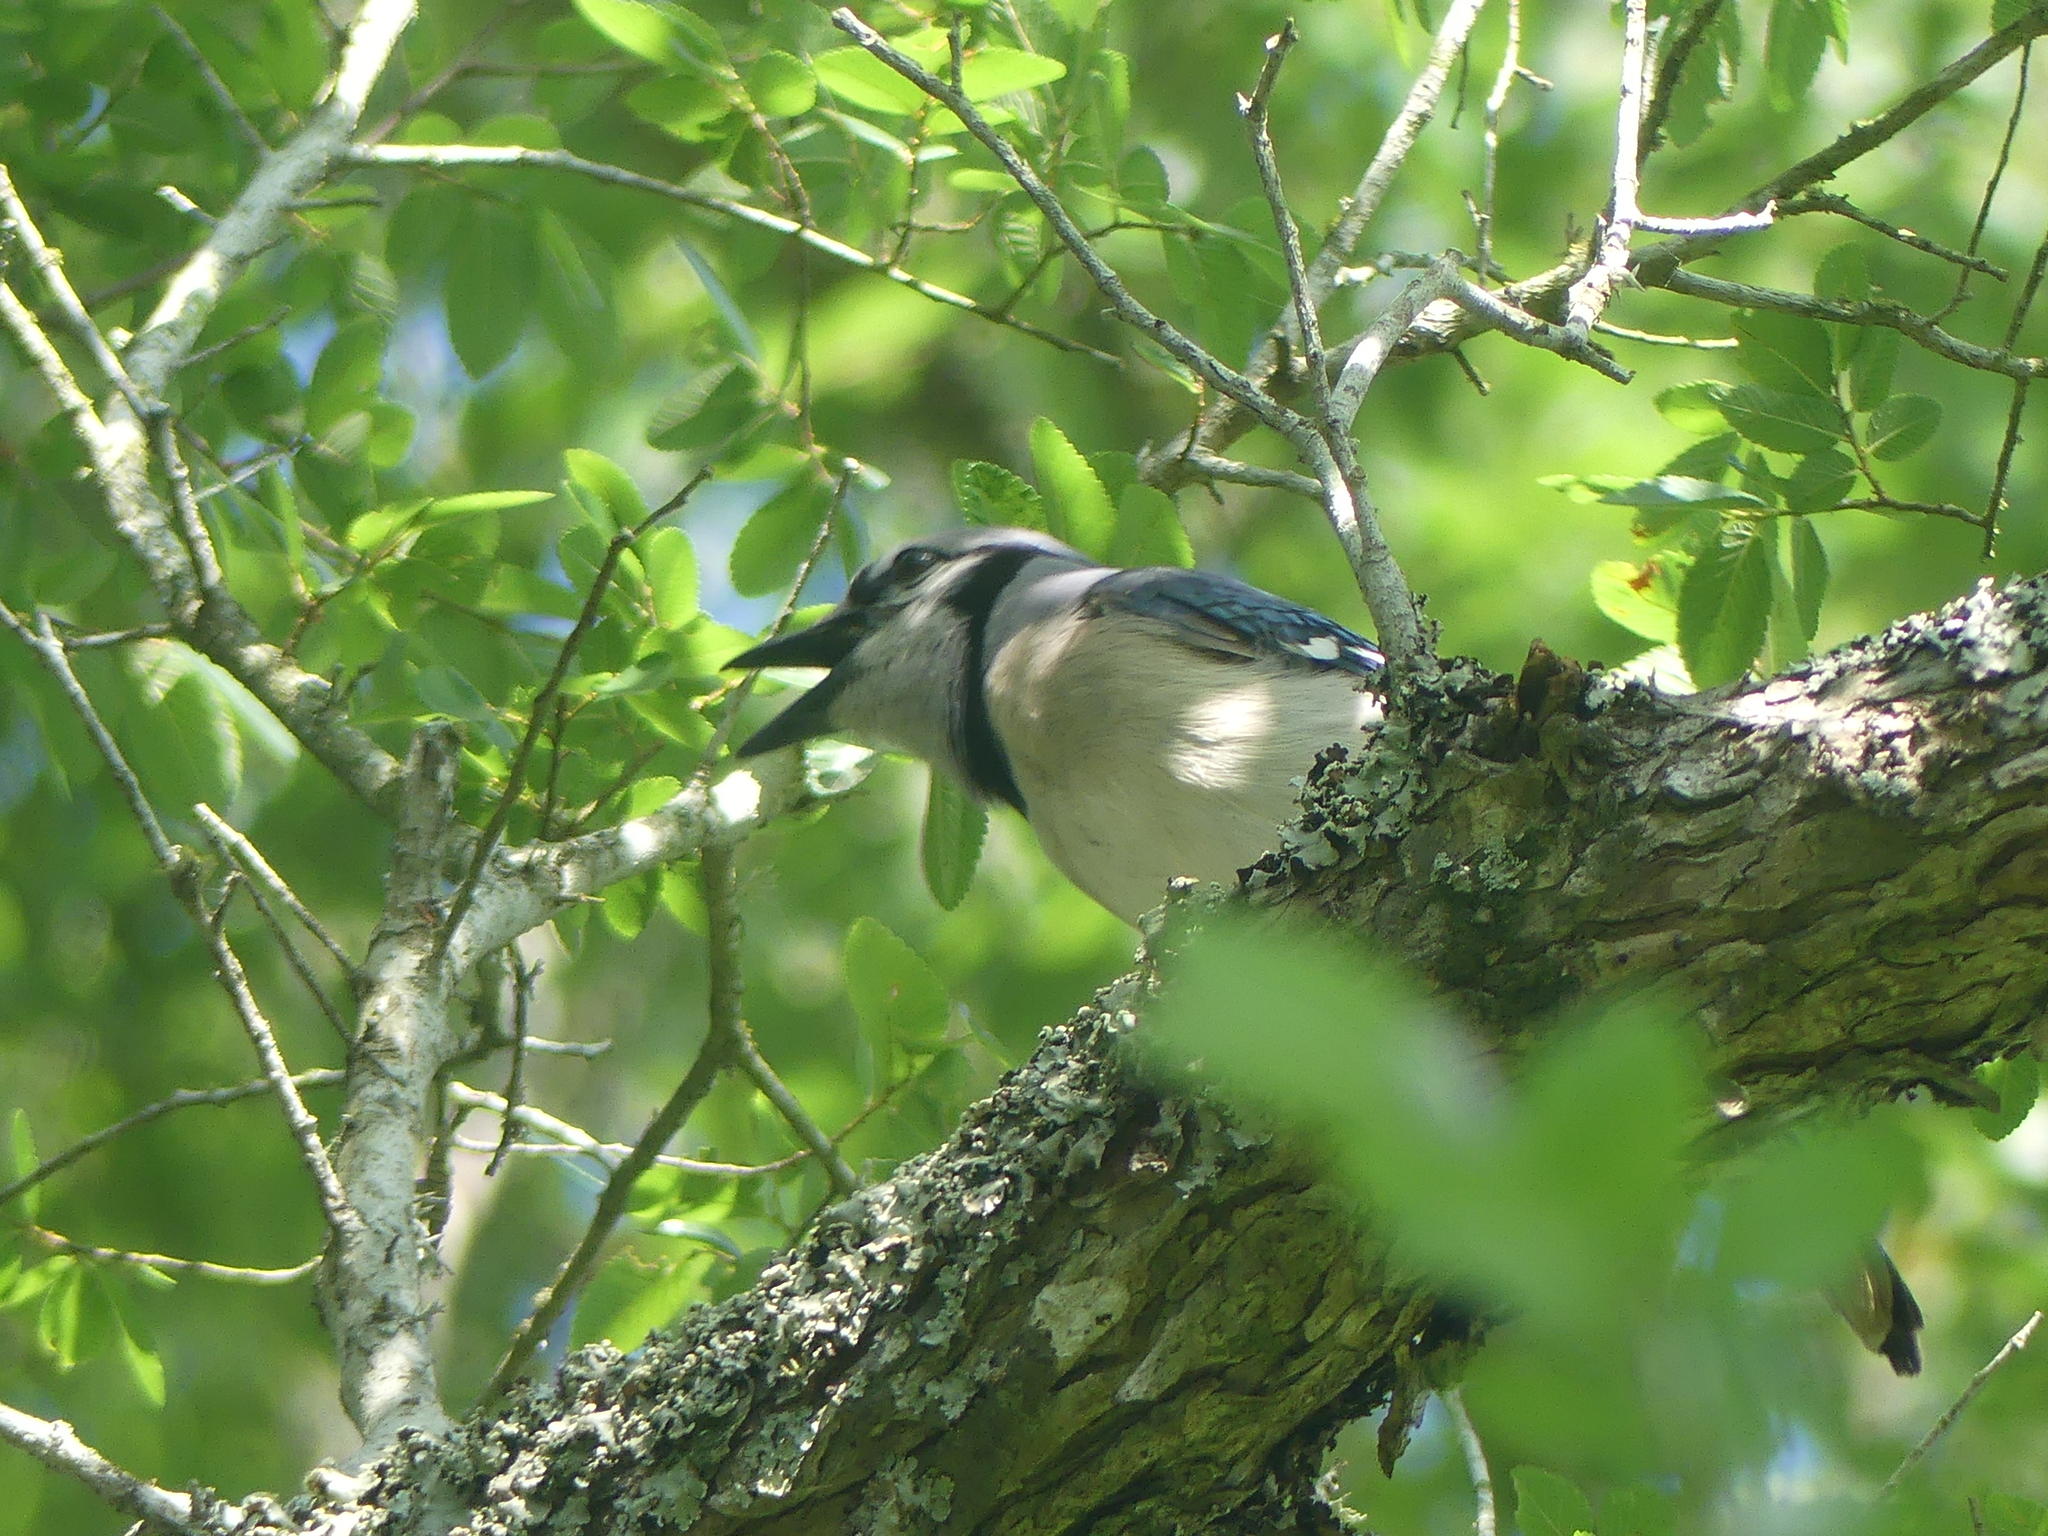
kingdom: Animalia
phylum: Chordata
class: Aves
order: Passeriformes
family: Corvidae
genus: Cyanocitta
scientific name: Cyanocitta cristata
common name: Blue jay
